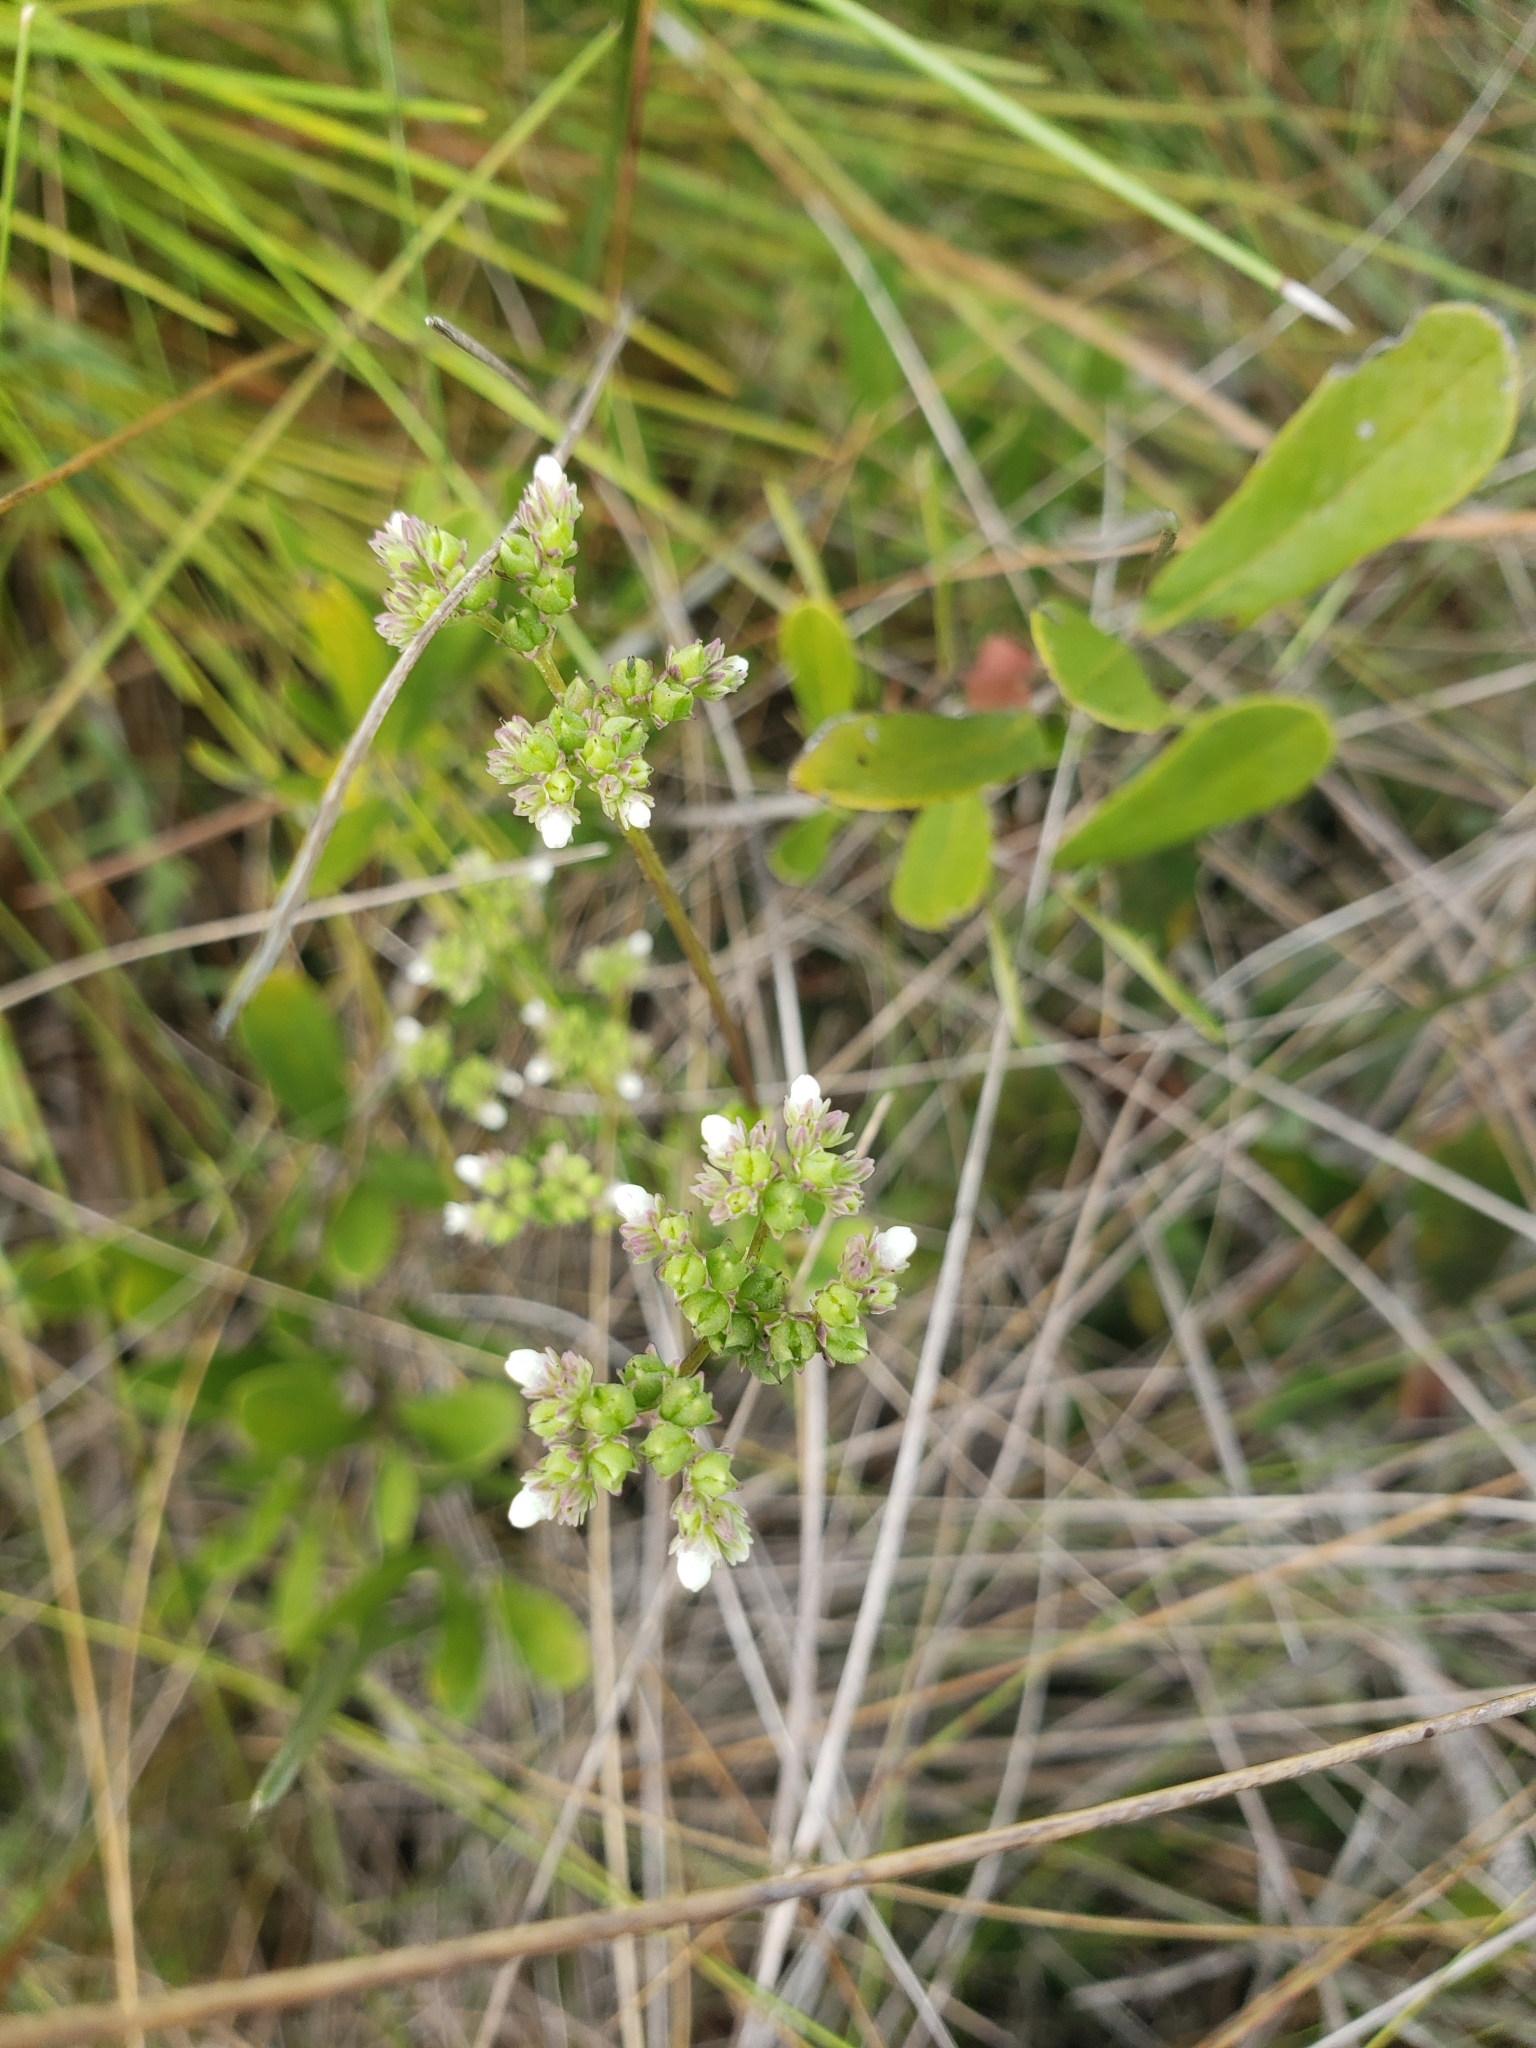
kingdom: Plantae
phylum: Tracheophyta
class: Magnoliopsida
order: Gentianales
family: Loganiaceae
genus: Mitreola
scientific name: Mitreola sessilifolia
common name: Swamp hornpod
